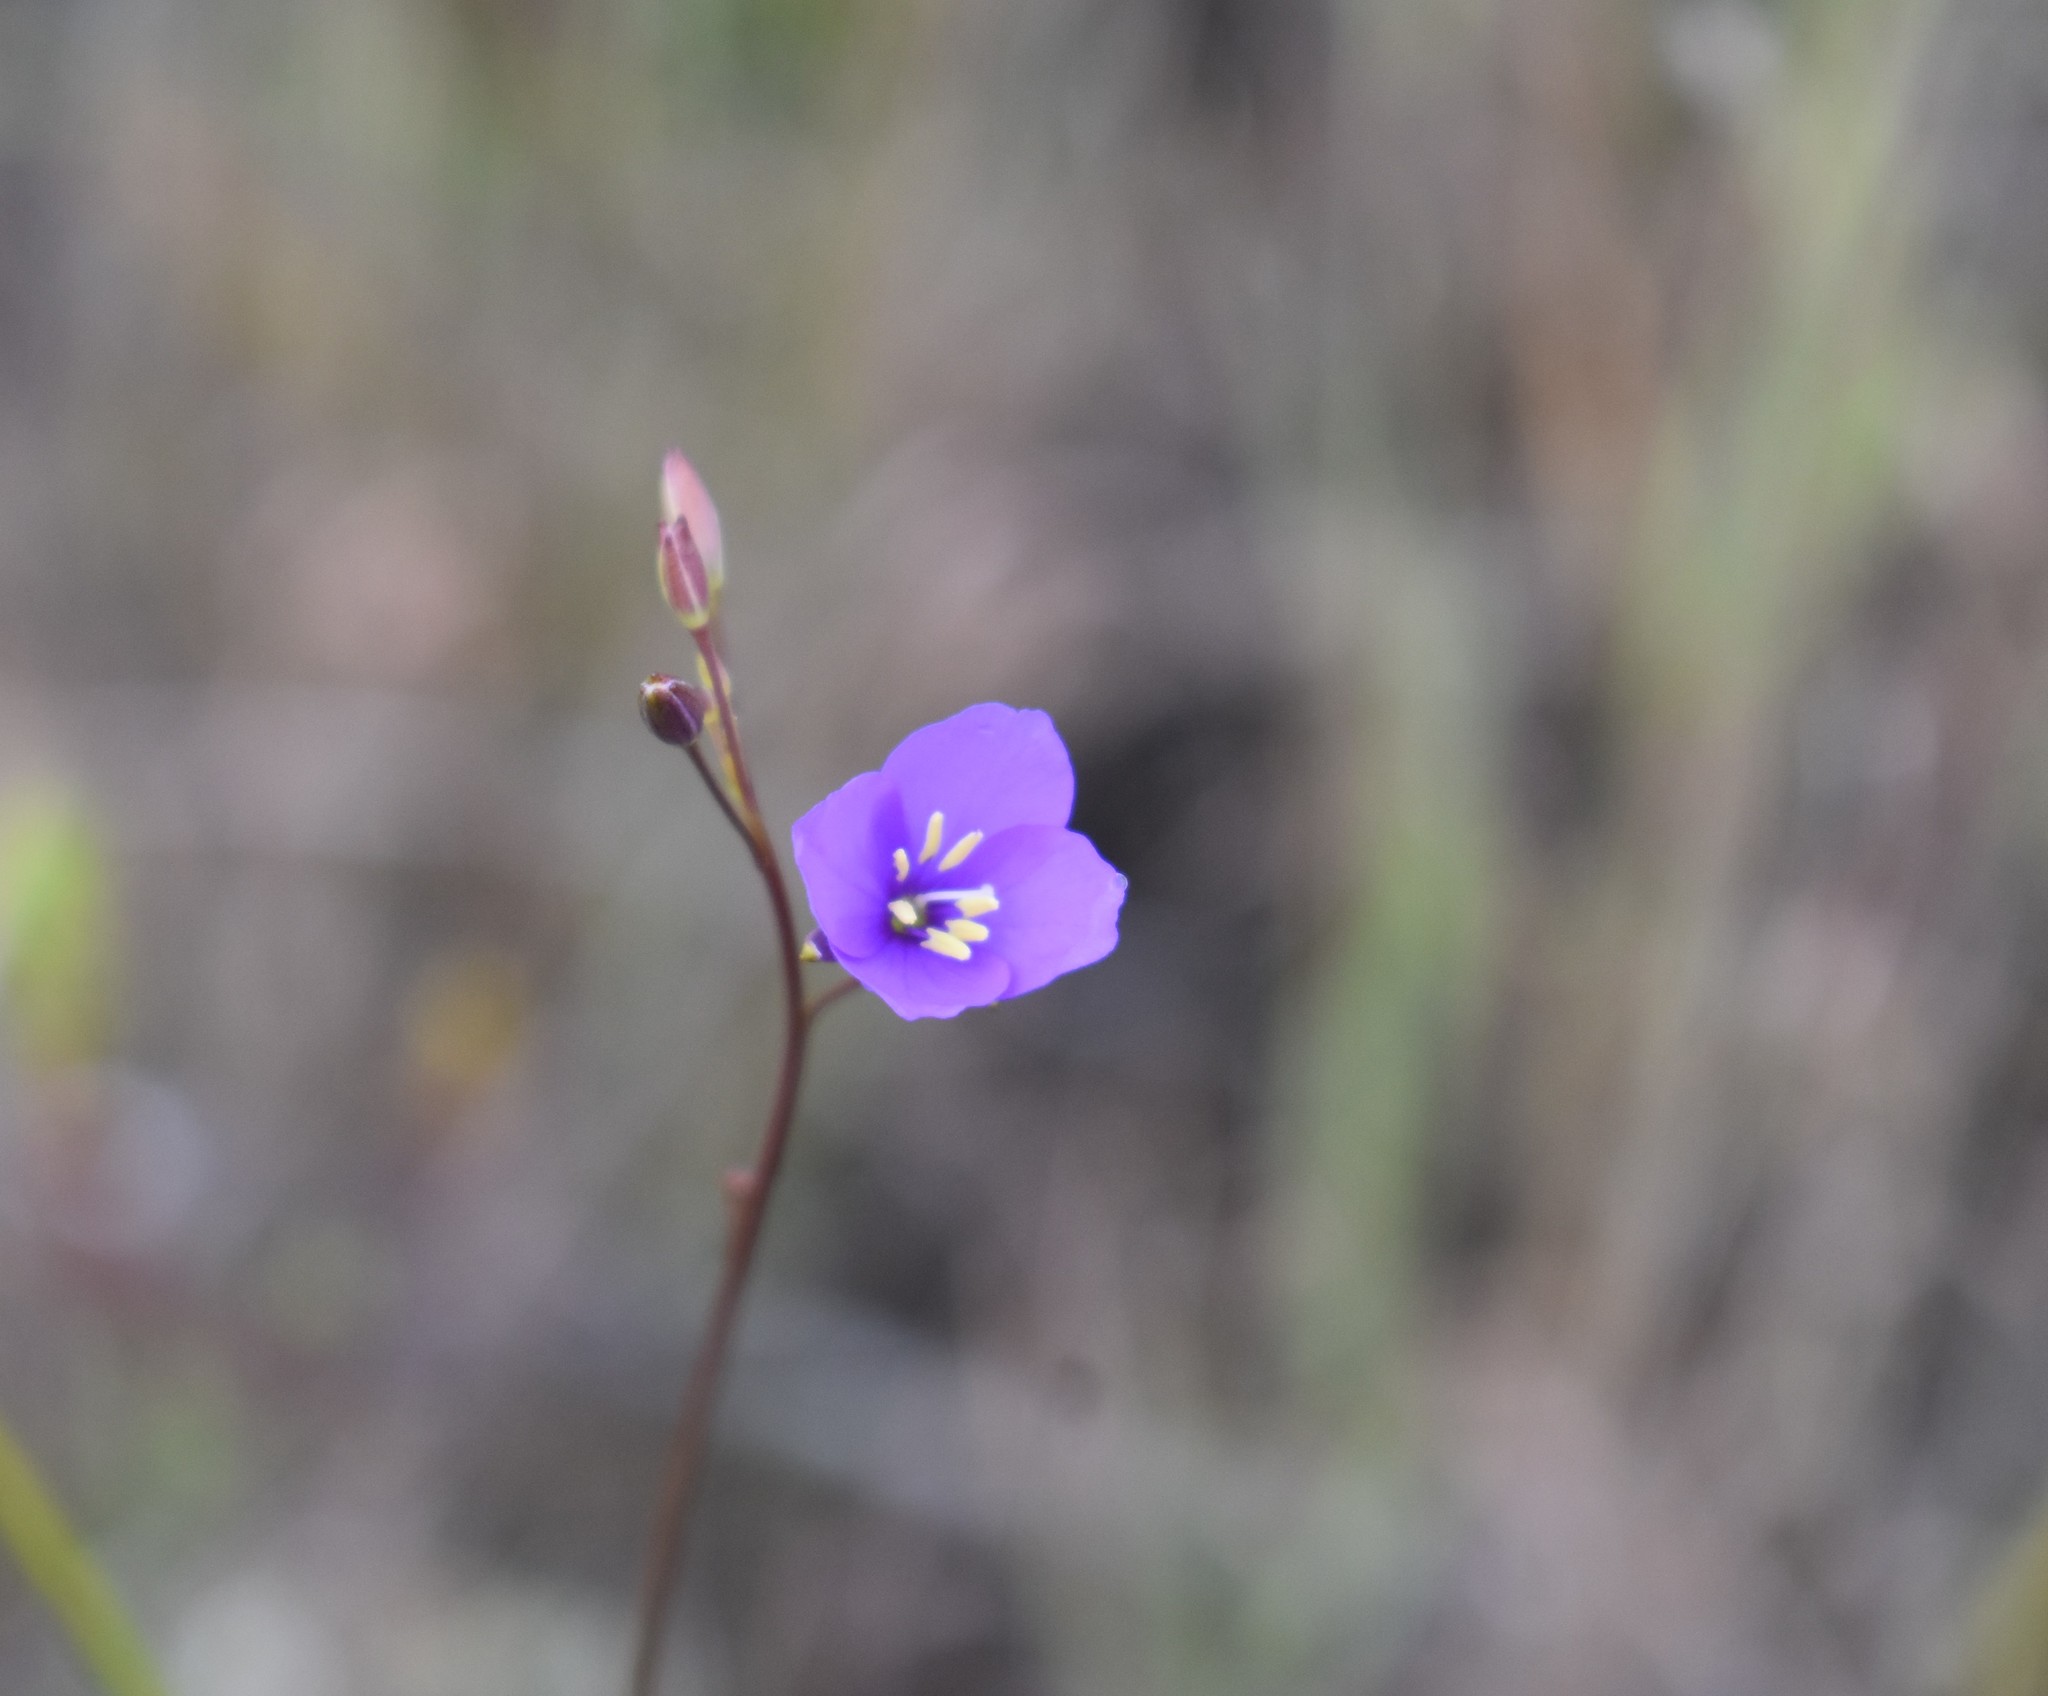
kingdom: Plantae
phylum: Tracheophyta
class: Magnoliopsida
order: Brassicales
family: Brassicaceae
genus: Heliophila
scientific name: Heliophila subulata
